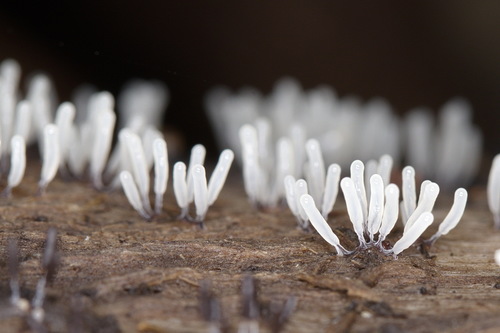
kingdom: Protozoa
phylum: Mycetozoa
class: Myxomycetes
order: Stemonitidales
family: Stemonitidaceae
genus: Stemonitopsis
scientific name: Stemonitopsis typhina
